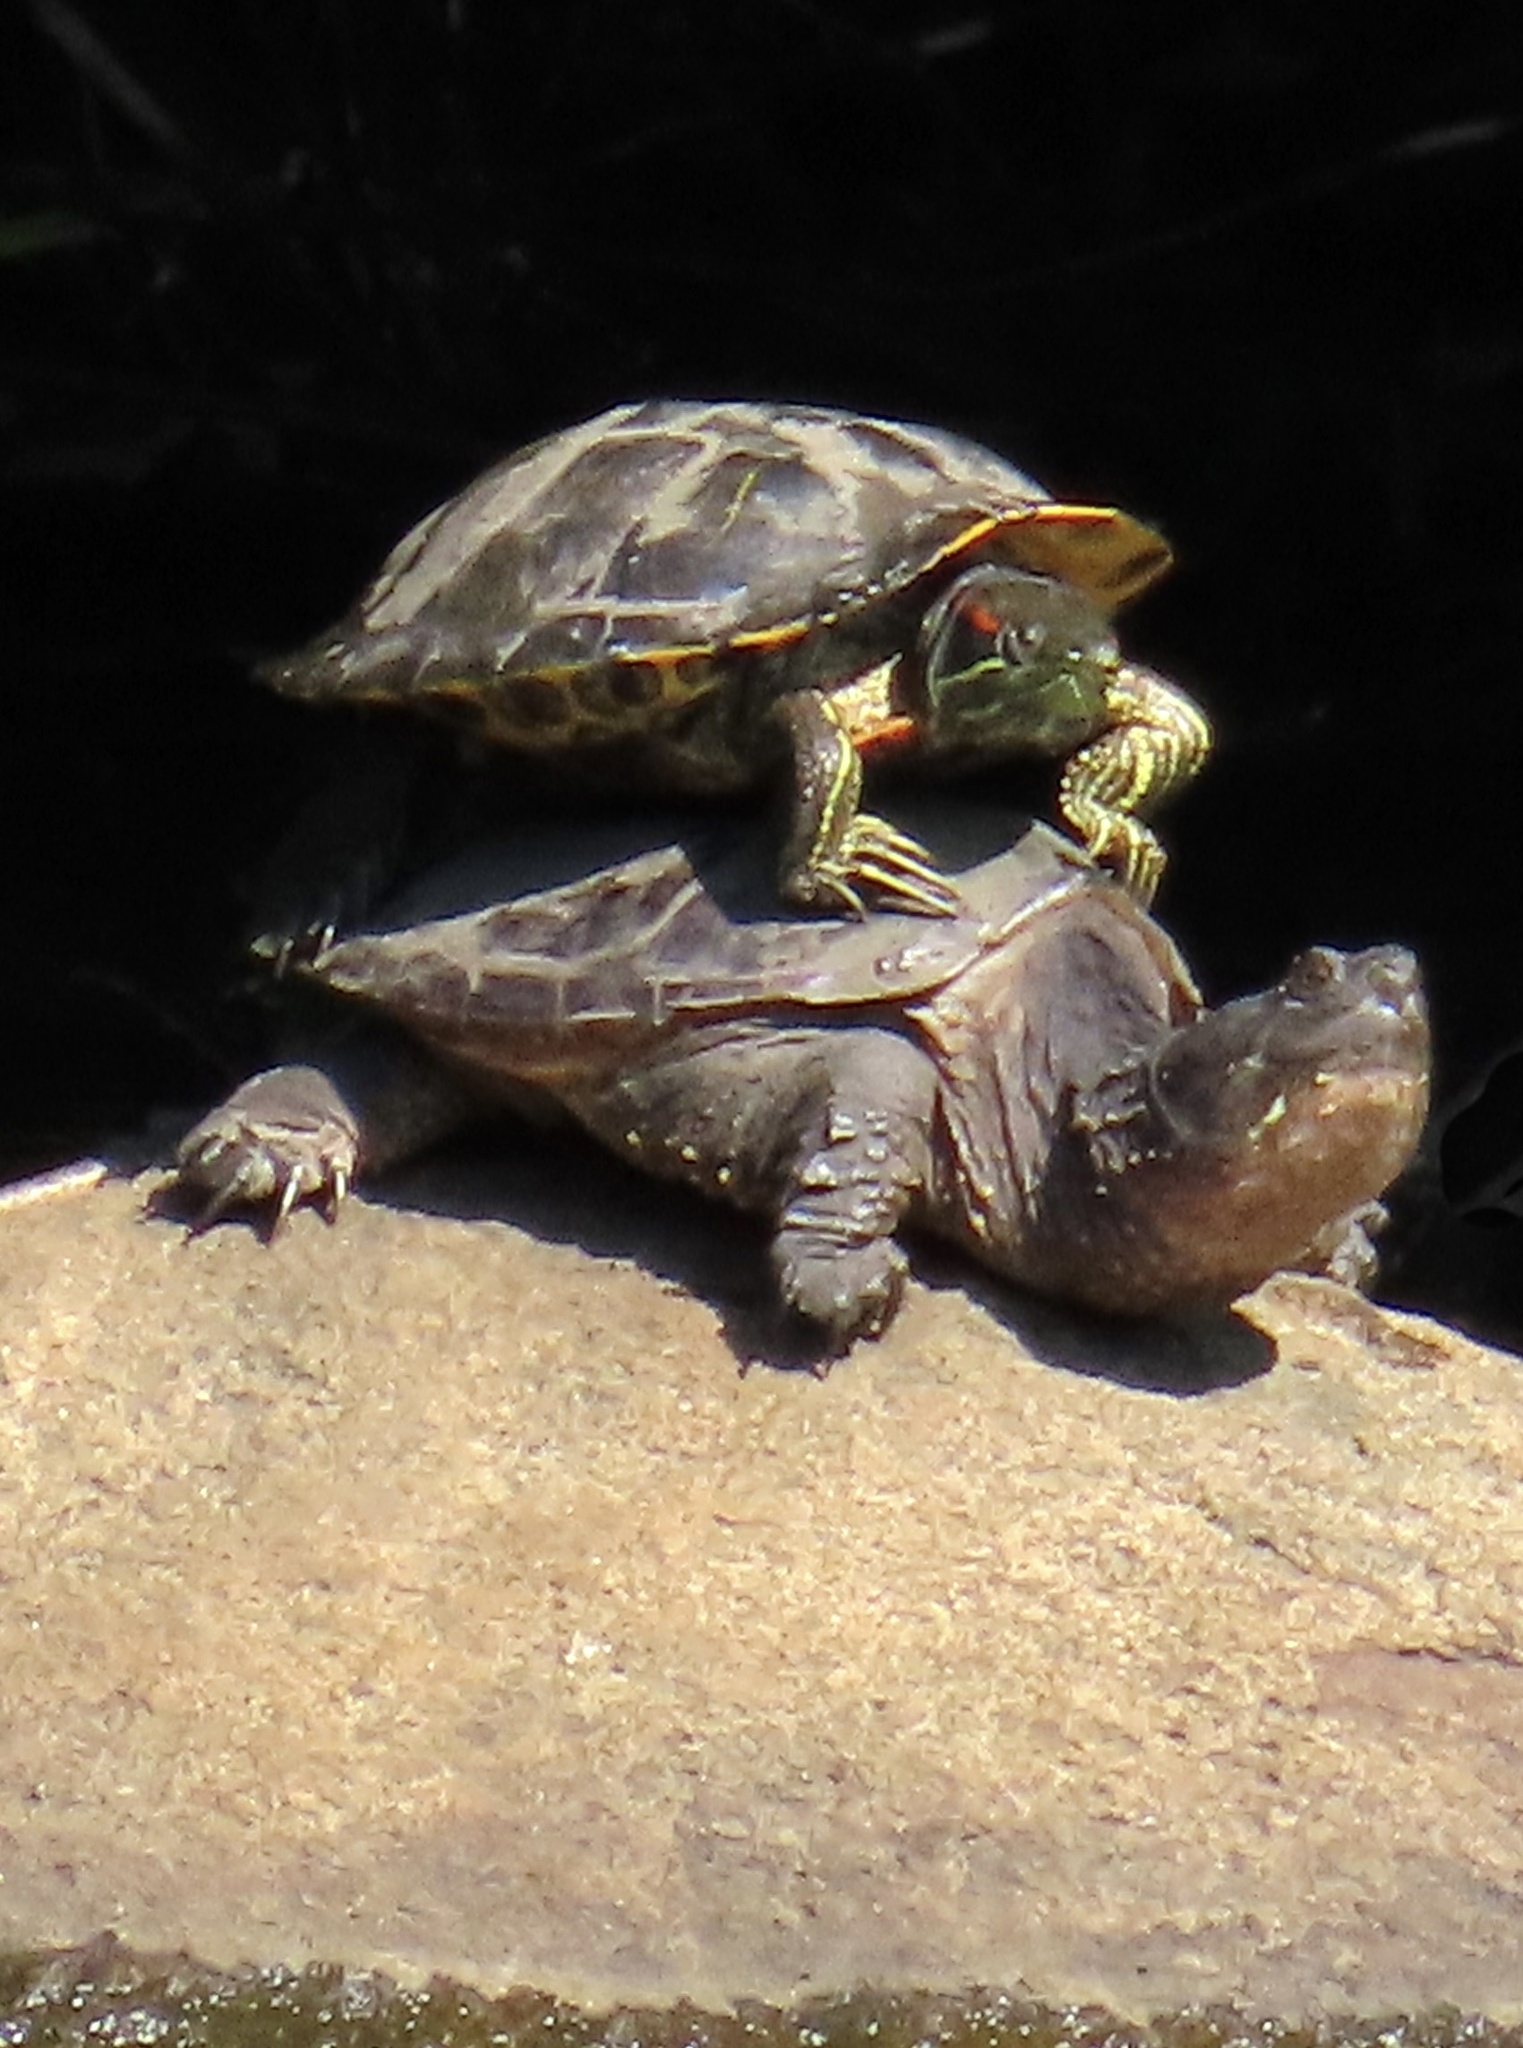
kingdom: Animalia
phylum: Chordata
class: Testudines
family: Emydidae
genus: Trachemys
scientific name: Trachemys scripta
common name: Slider
